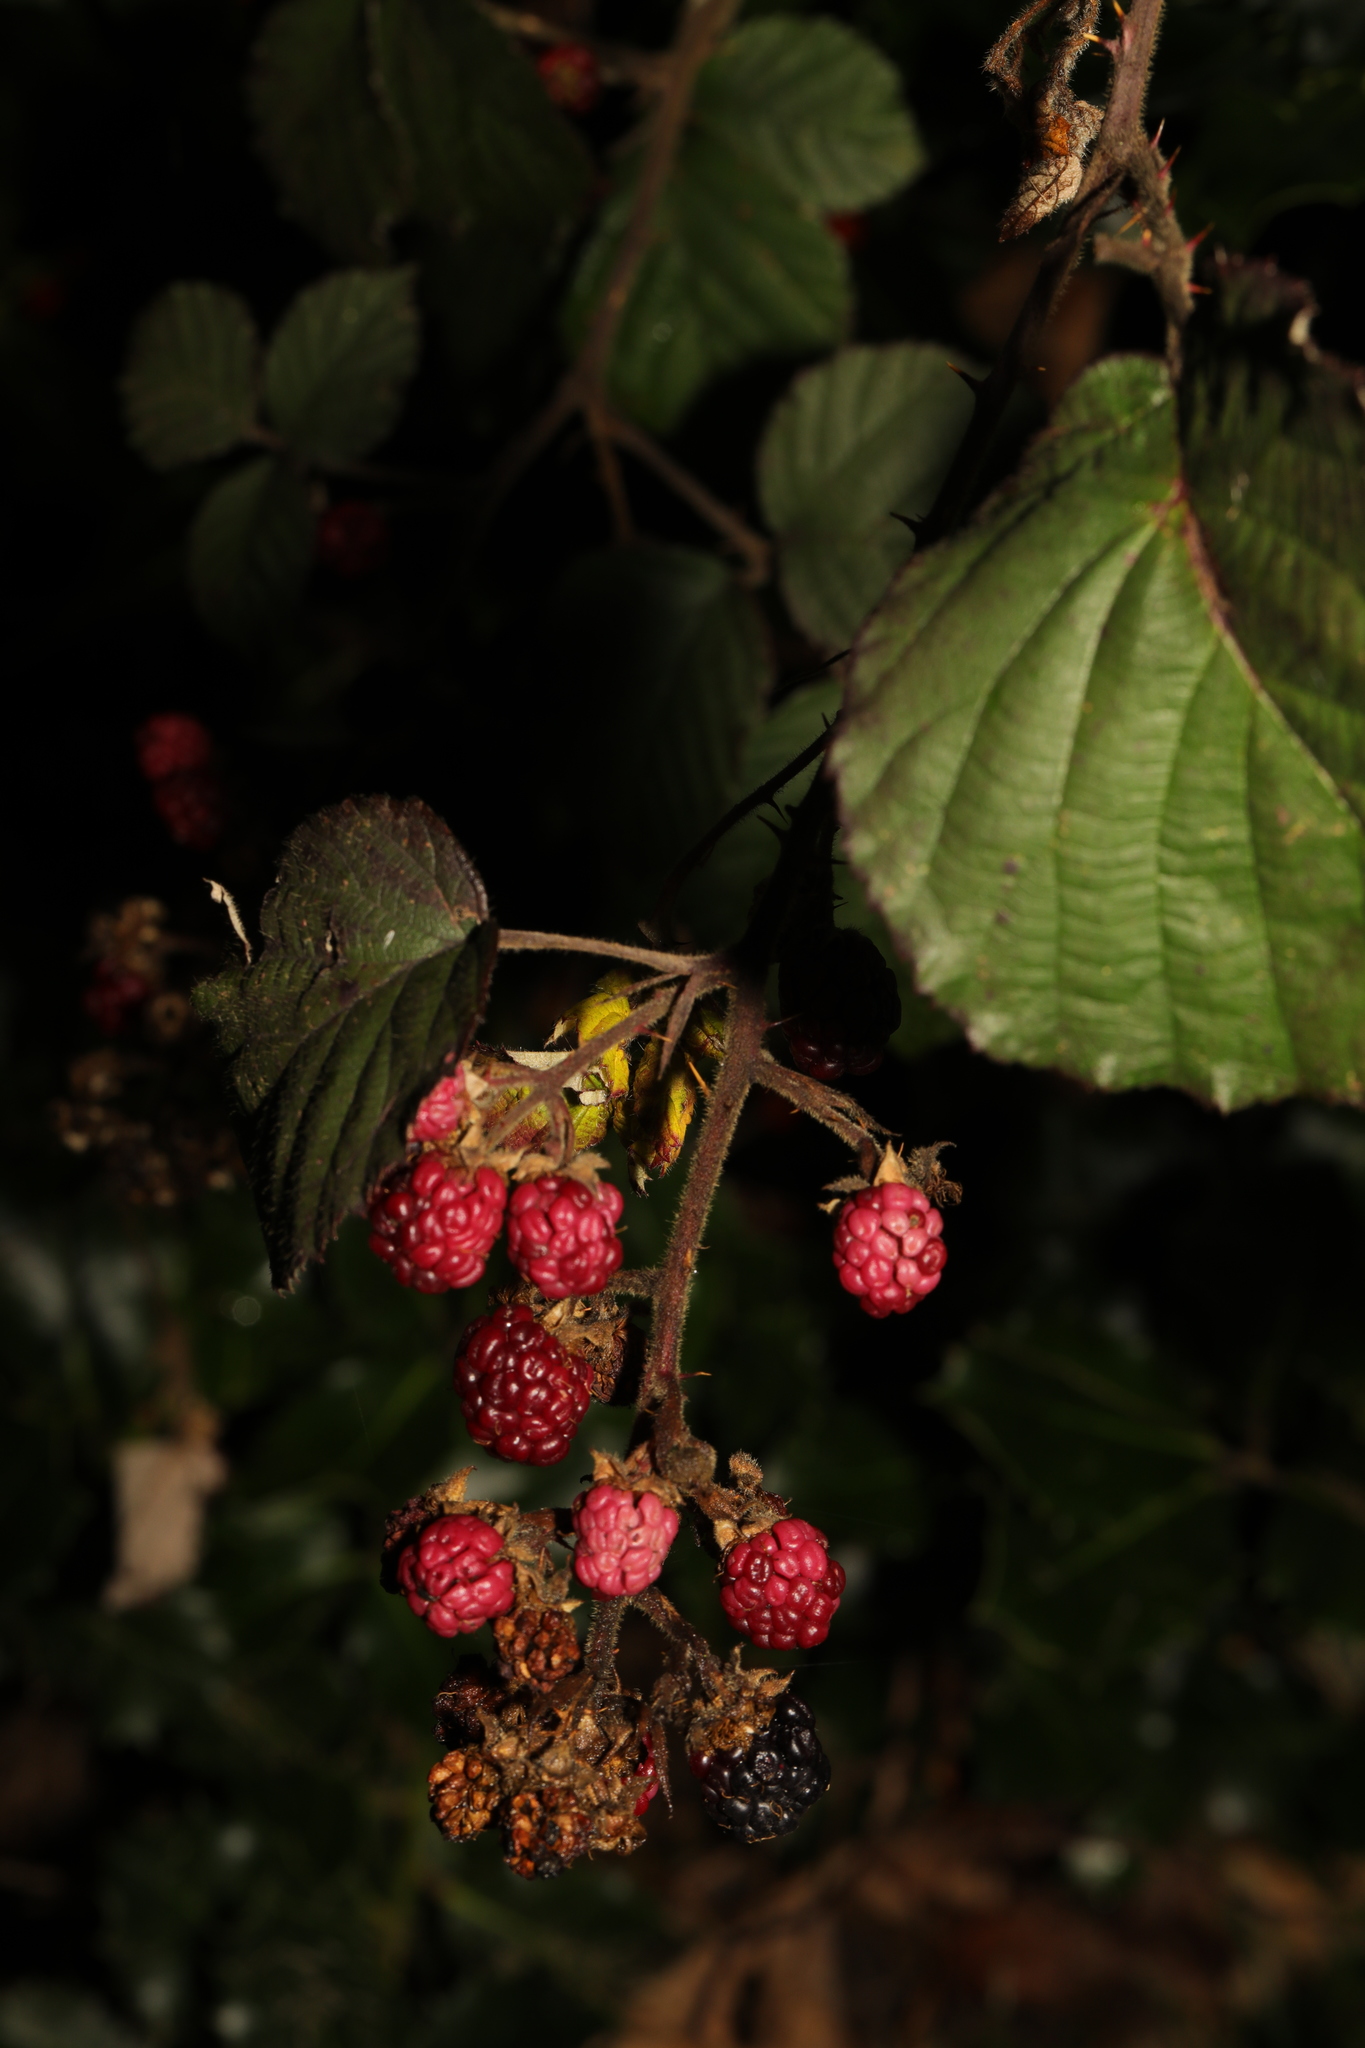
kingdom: Plantae
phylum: Tracheophyta
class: Magnoliopsida
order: Rosales
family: Rosaceae
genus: Rubus
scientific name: Rubus vestitus
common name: European blackberry
